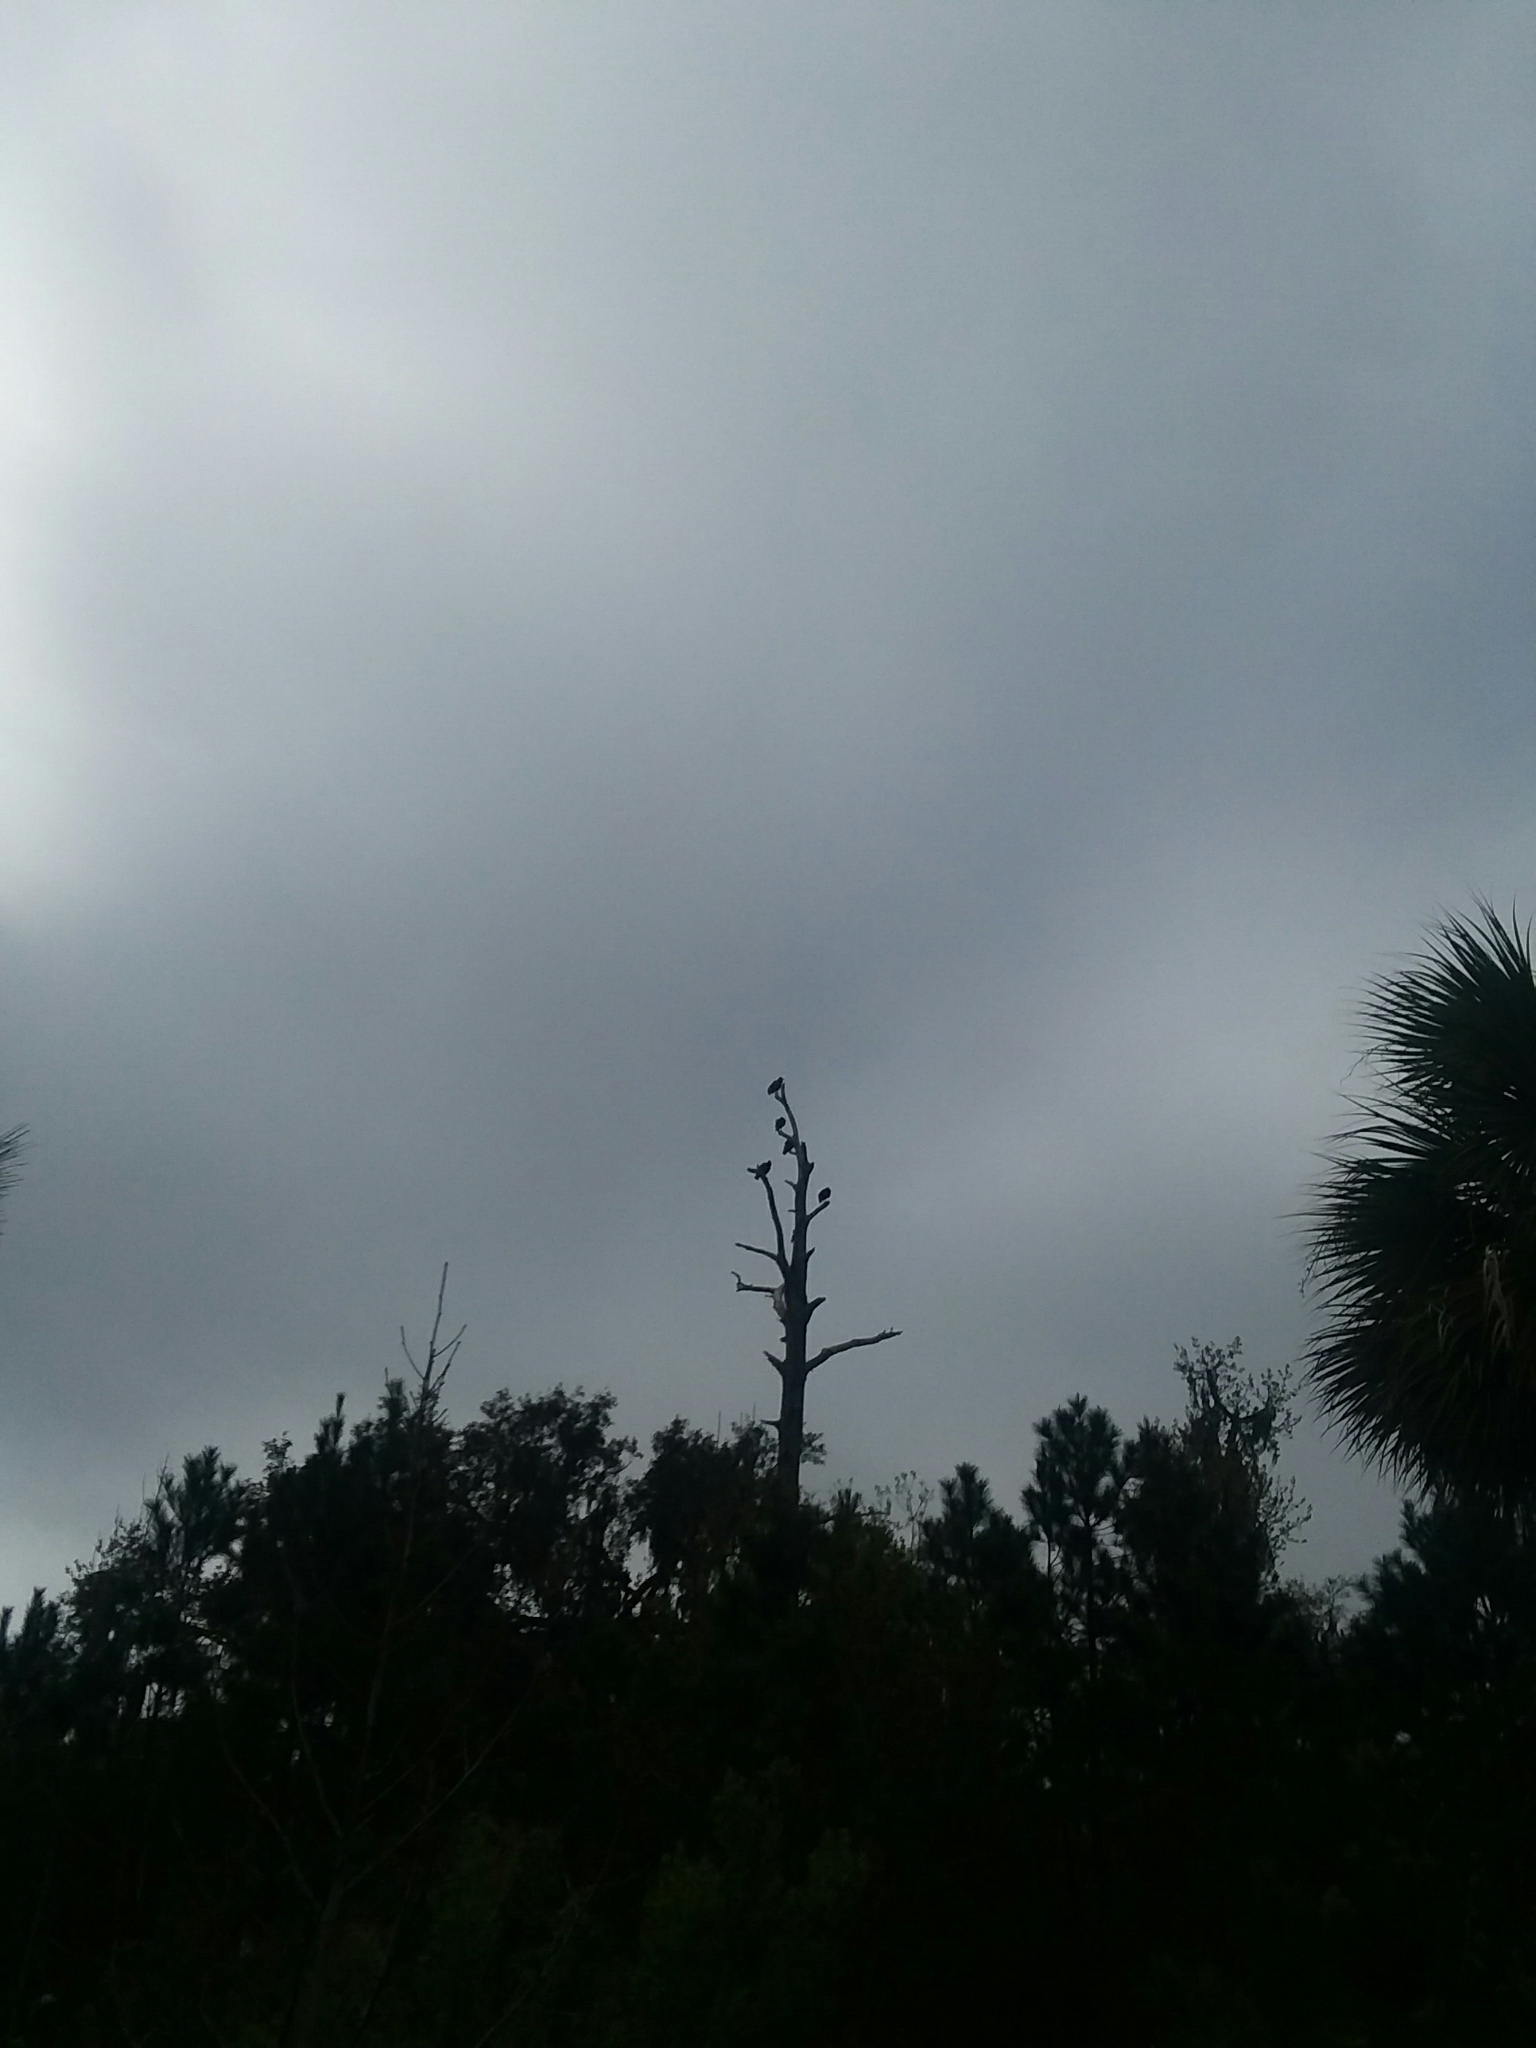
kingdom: Animalia
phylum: Chordata
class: Aves
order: Accipitriformes
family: Cathartidae
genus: Coragyps
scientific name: Coragyps atratus
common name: Black vulture
